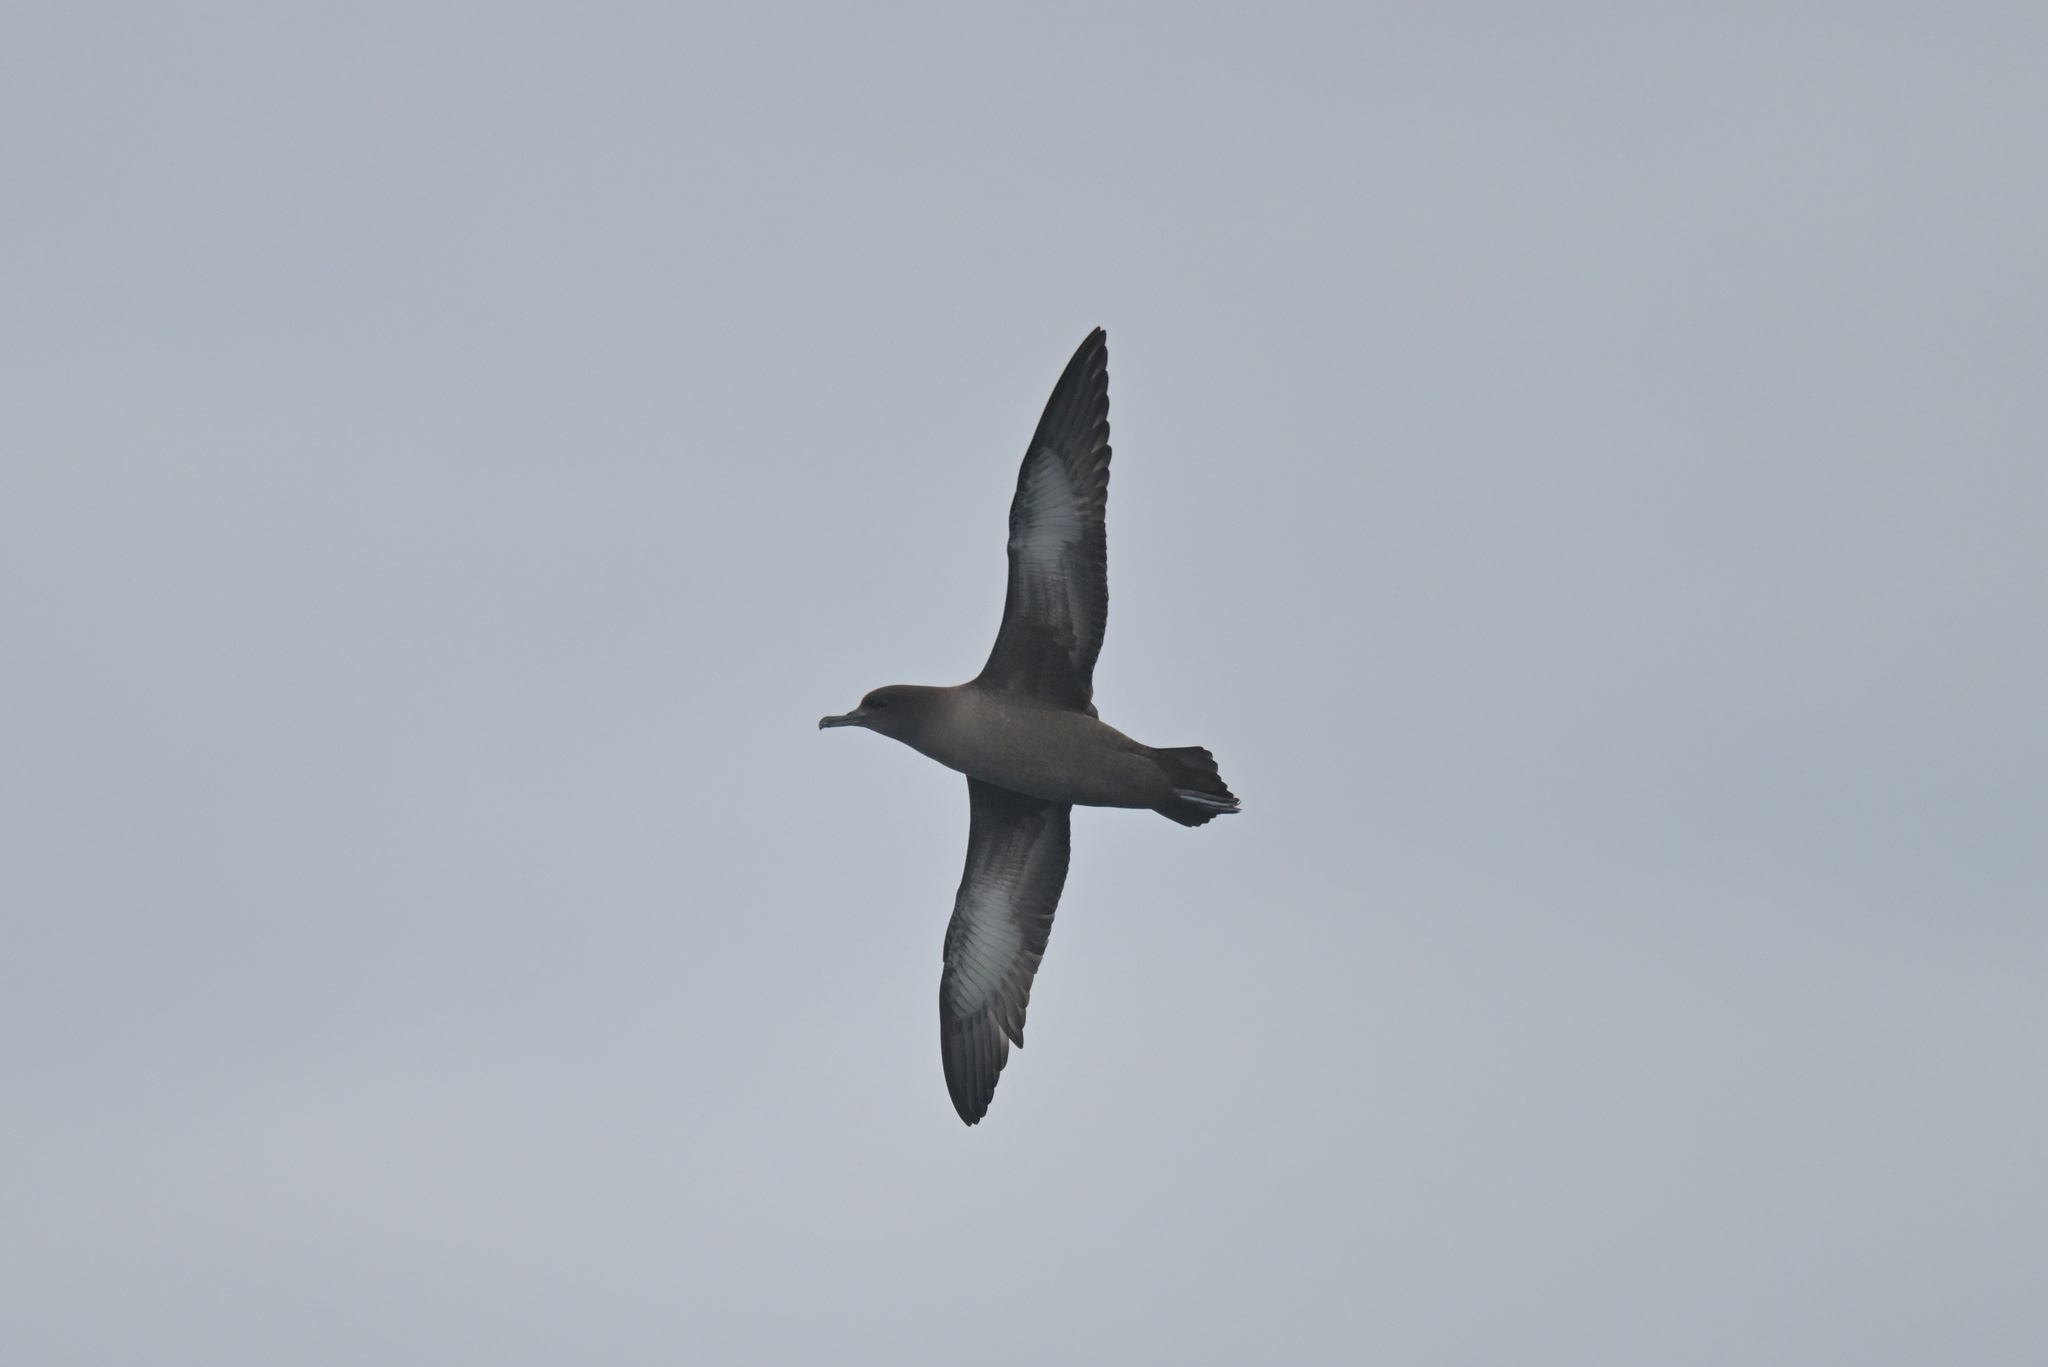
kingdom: Animalia
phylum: Chordata
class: Aves
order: Procellariiformes
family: Procellariidae
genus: Puffinus
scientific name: Puffinus griseus
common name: Sooty shearwater
